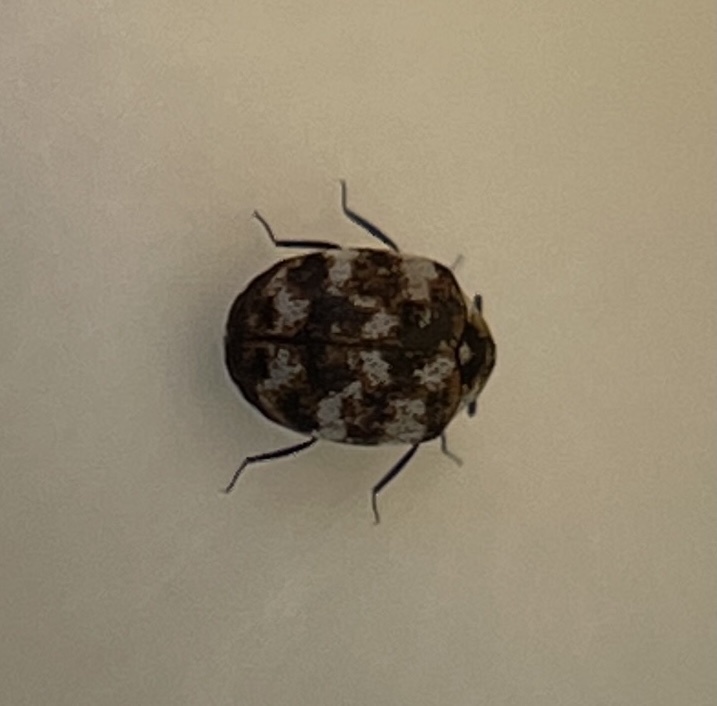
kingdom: Animalia
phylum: Arthropoda
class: Insecta
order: Coleoptera
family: Dermestidae
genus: Anthrenus
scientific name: Anthrenus verbasci
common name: Varied carpet beetle
